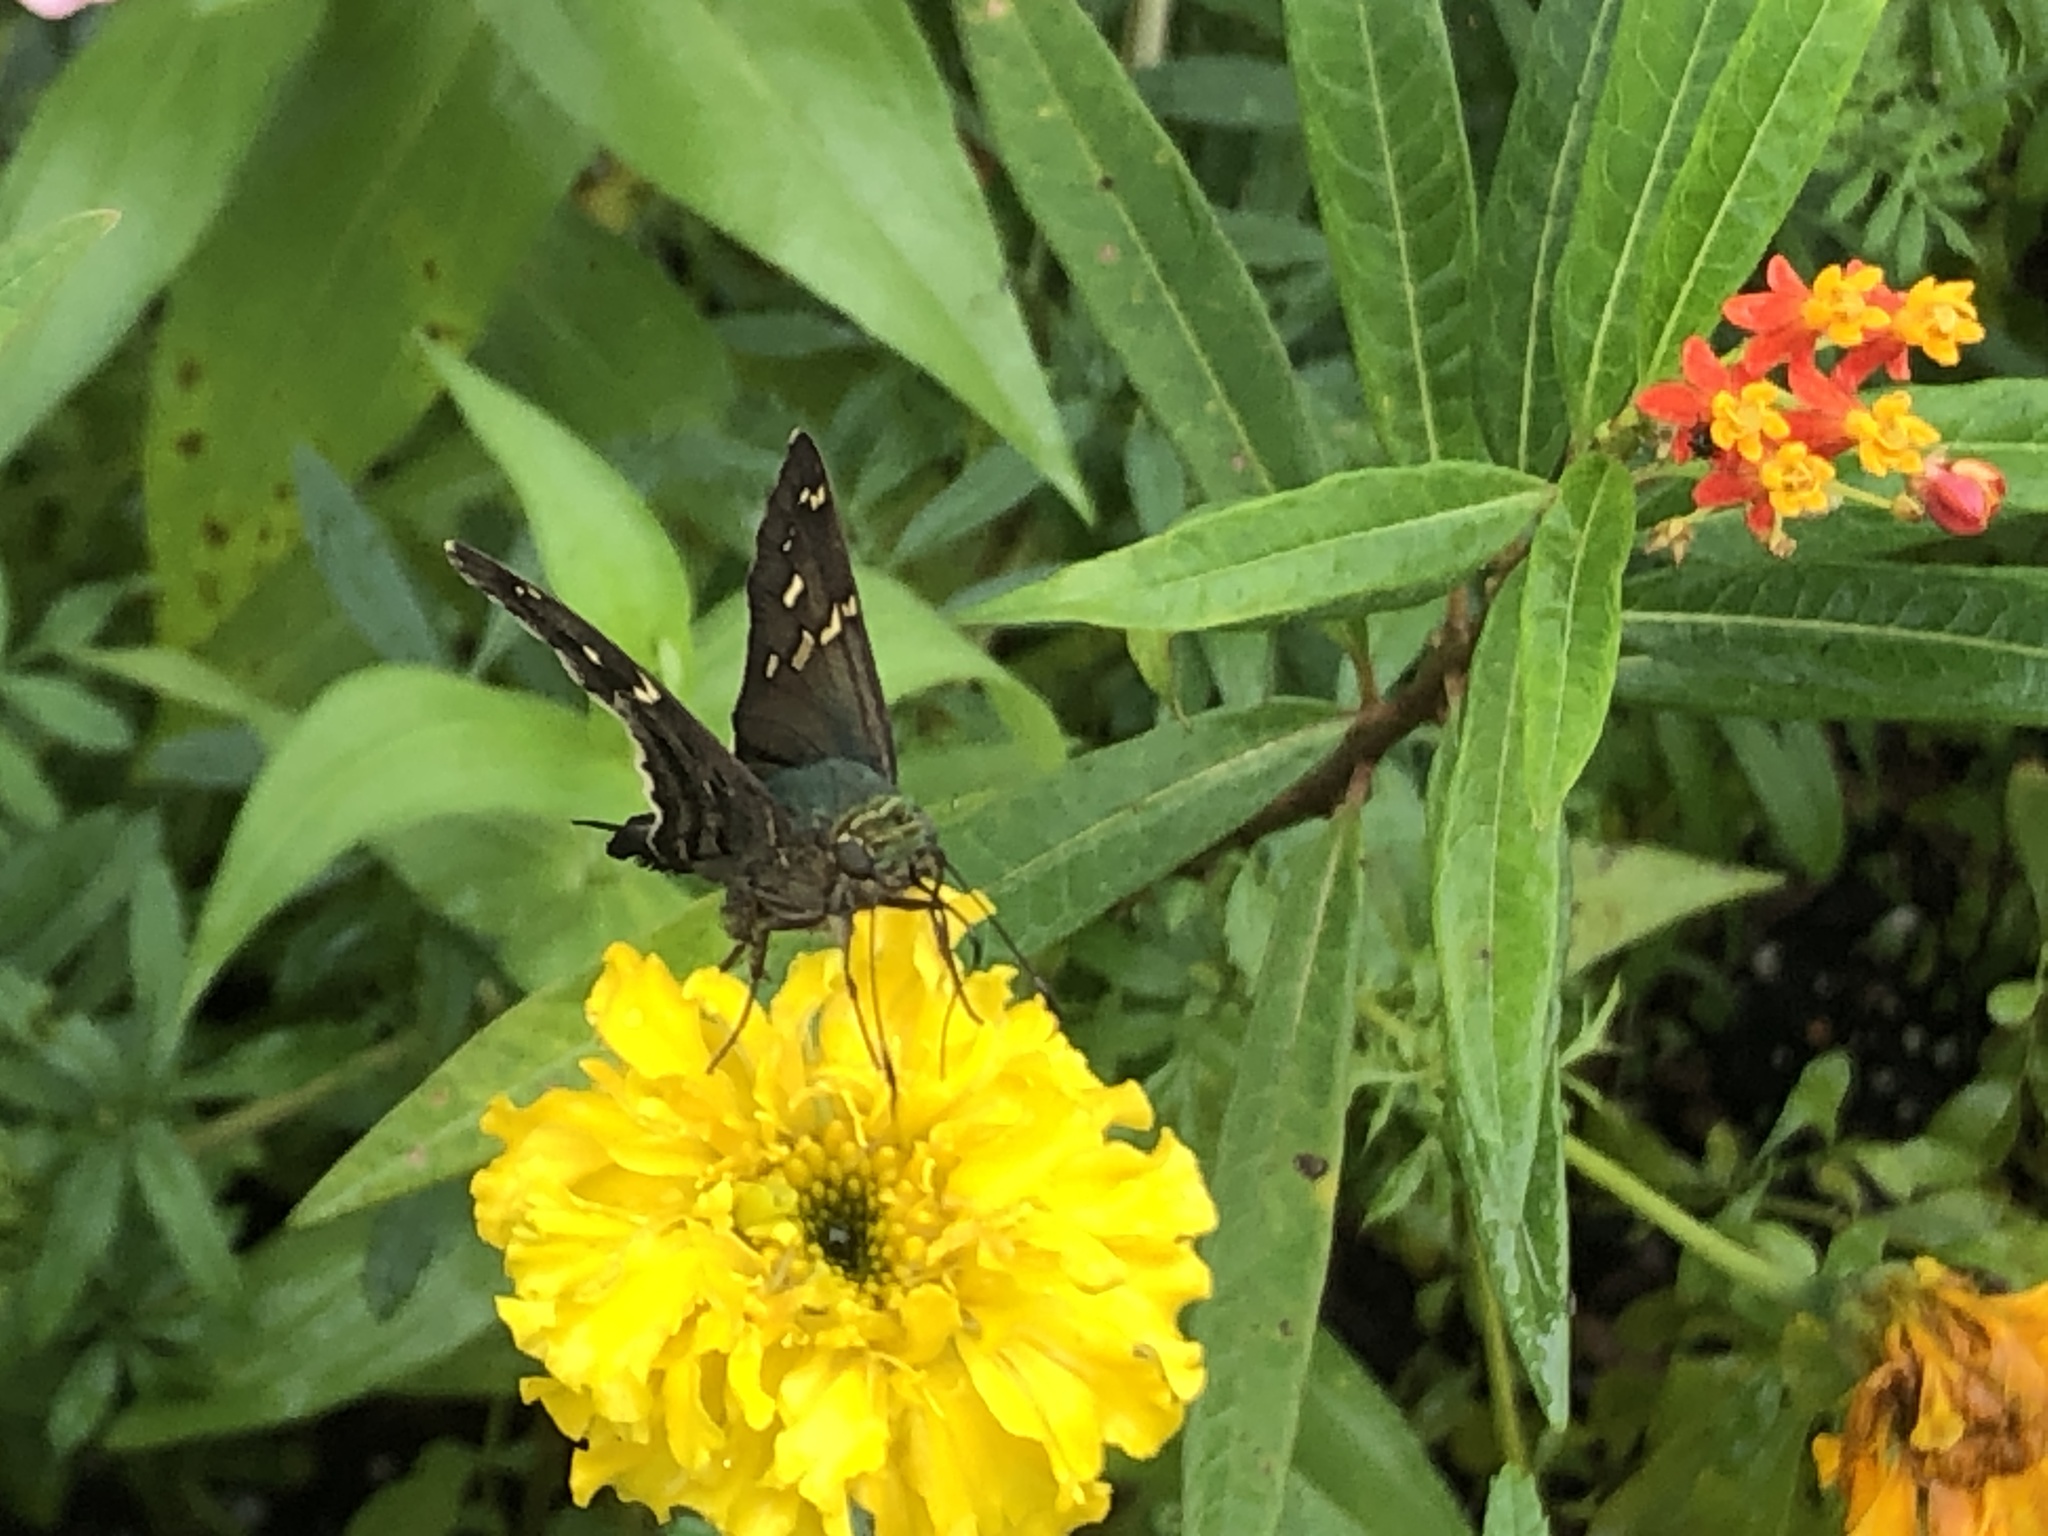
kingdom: Animalia
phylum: Arthropoda
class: Insecta
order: Lepidoptera
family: Hesperiidae
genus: Urbanus
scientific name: Urbanus proteus
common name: Long-tailed skipper
